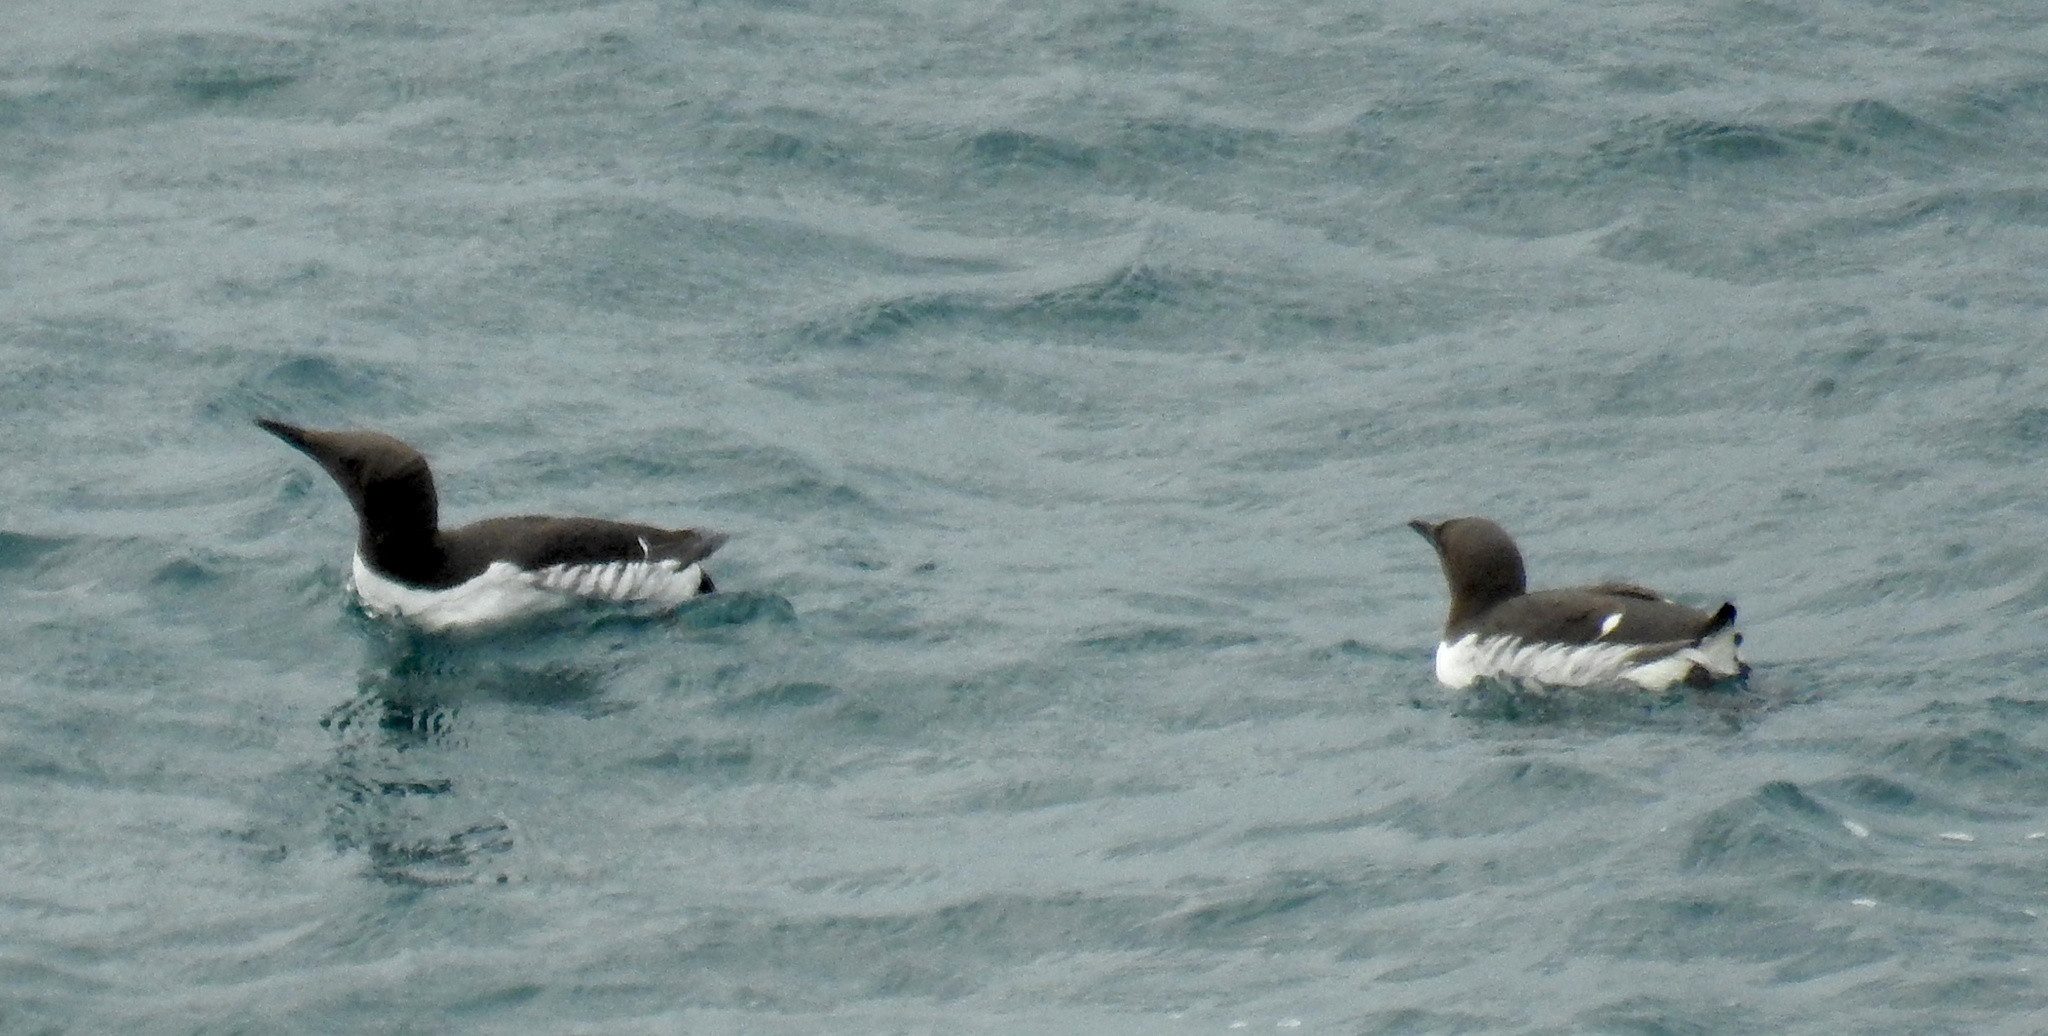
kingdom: Animalia
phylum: Chordata
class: Aves
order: Charadriiformes
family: Alcidae
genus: Uria
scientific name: Uria aalge
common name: Common murre
